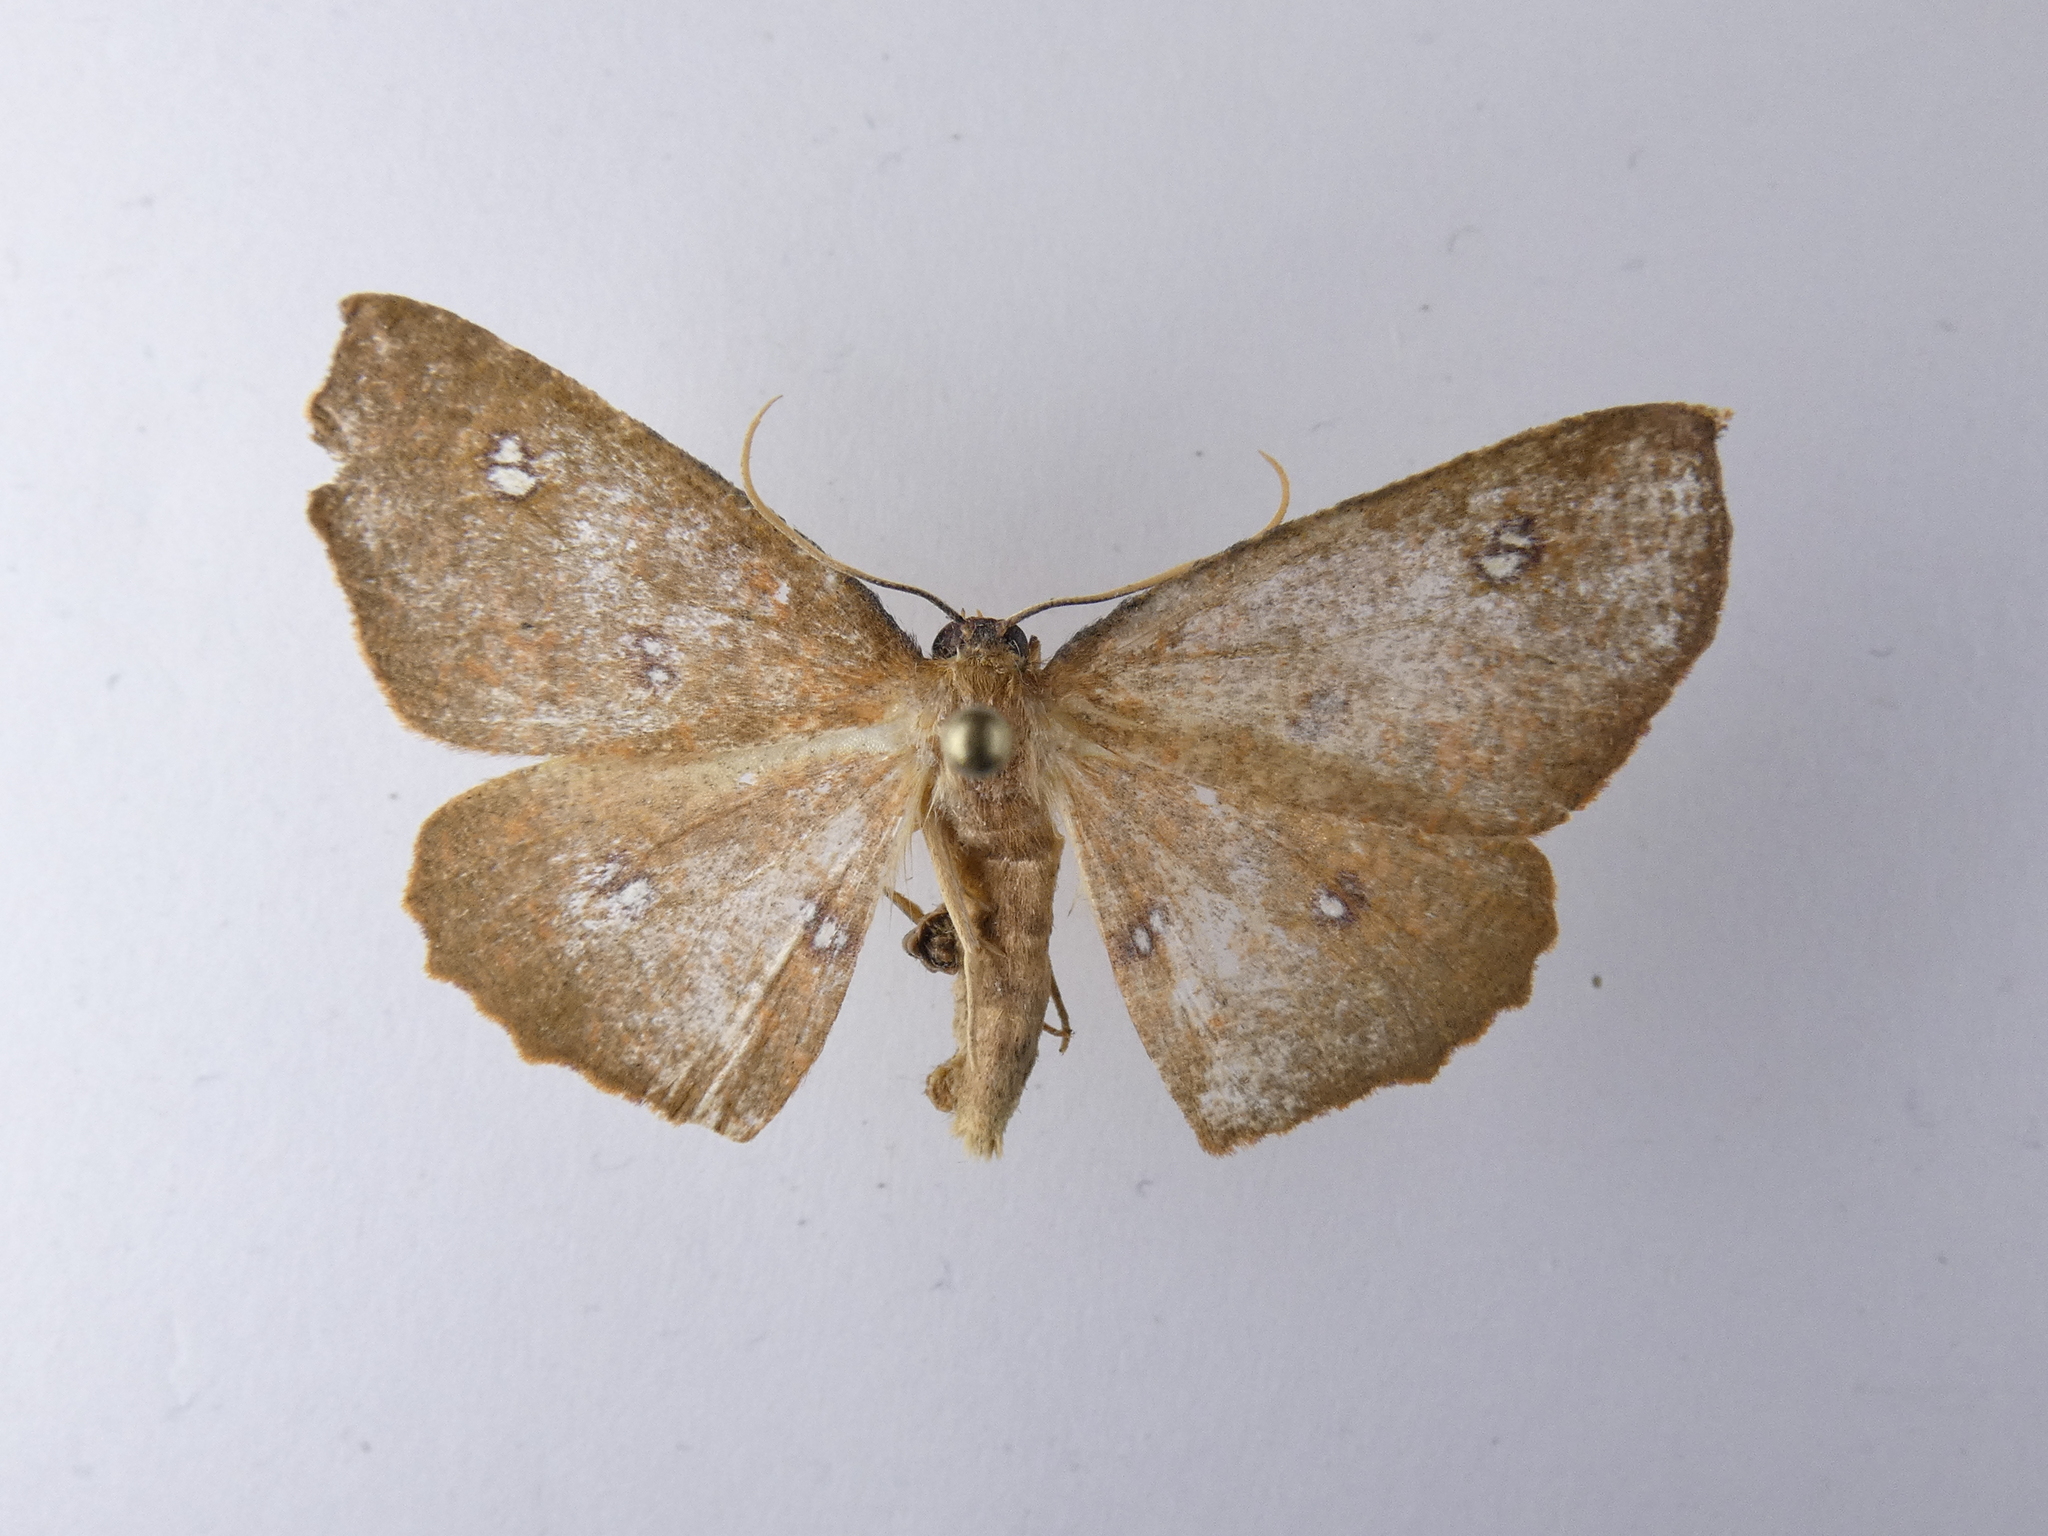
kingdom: Animalia
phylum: Arthropoda
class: Insecta
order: Lepidoptera
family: Geometridae
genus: Xyridacma
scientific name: Xyridacma ustaria
